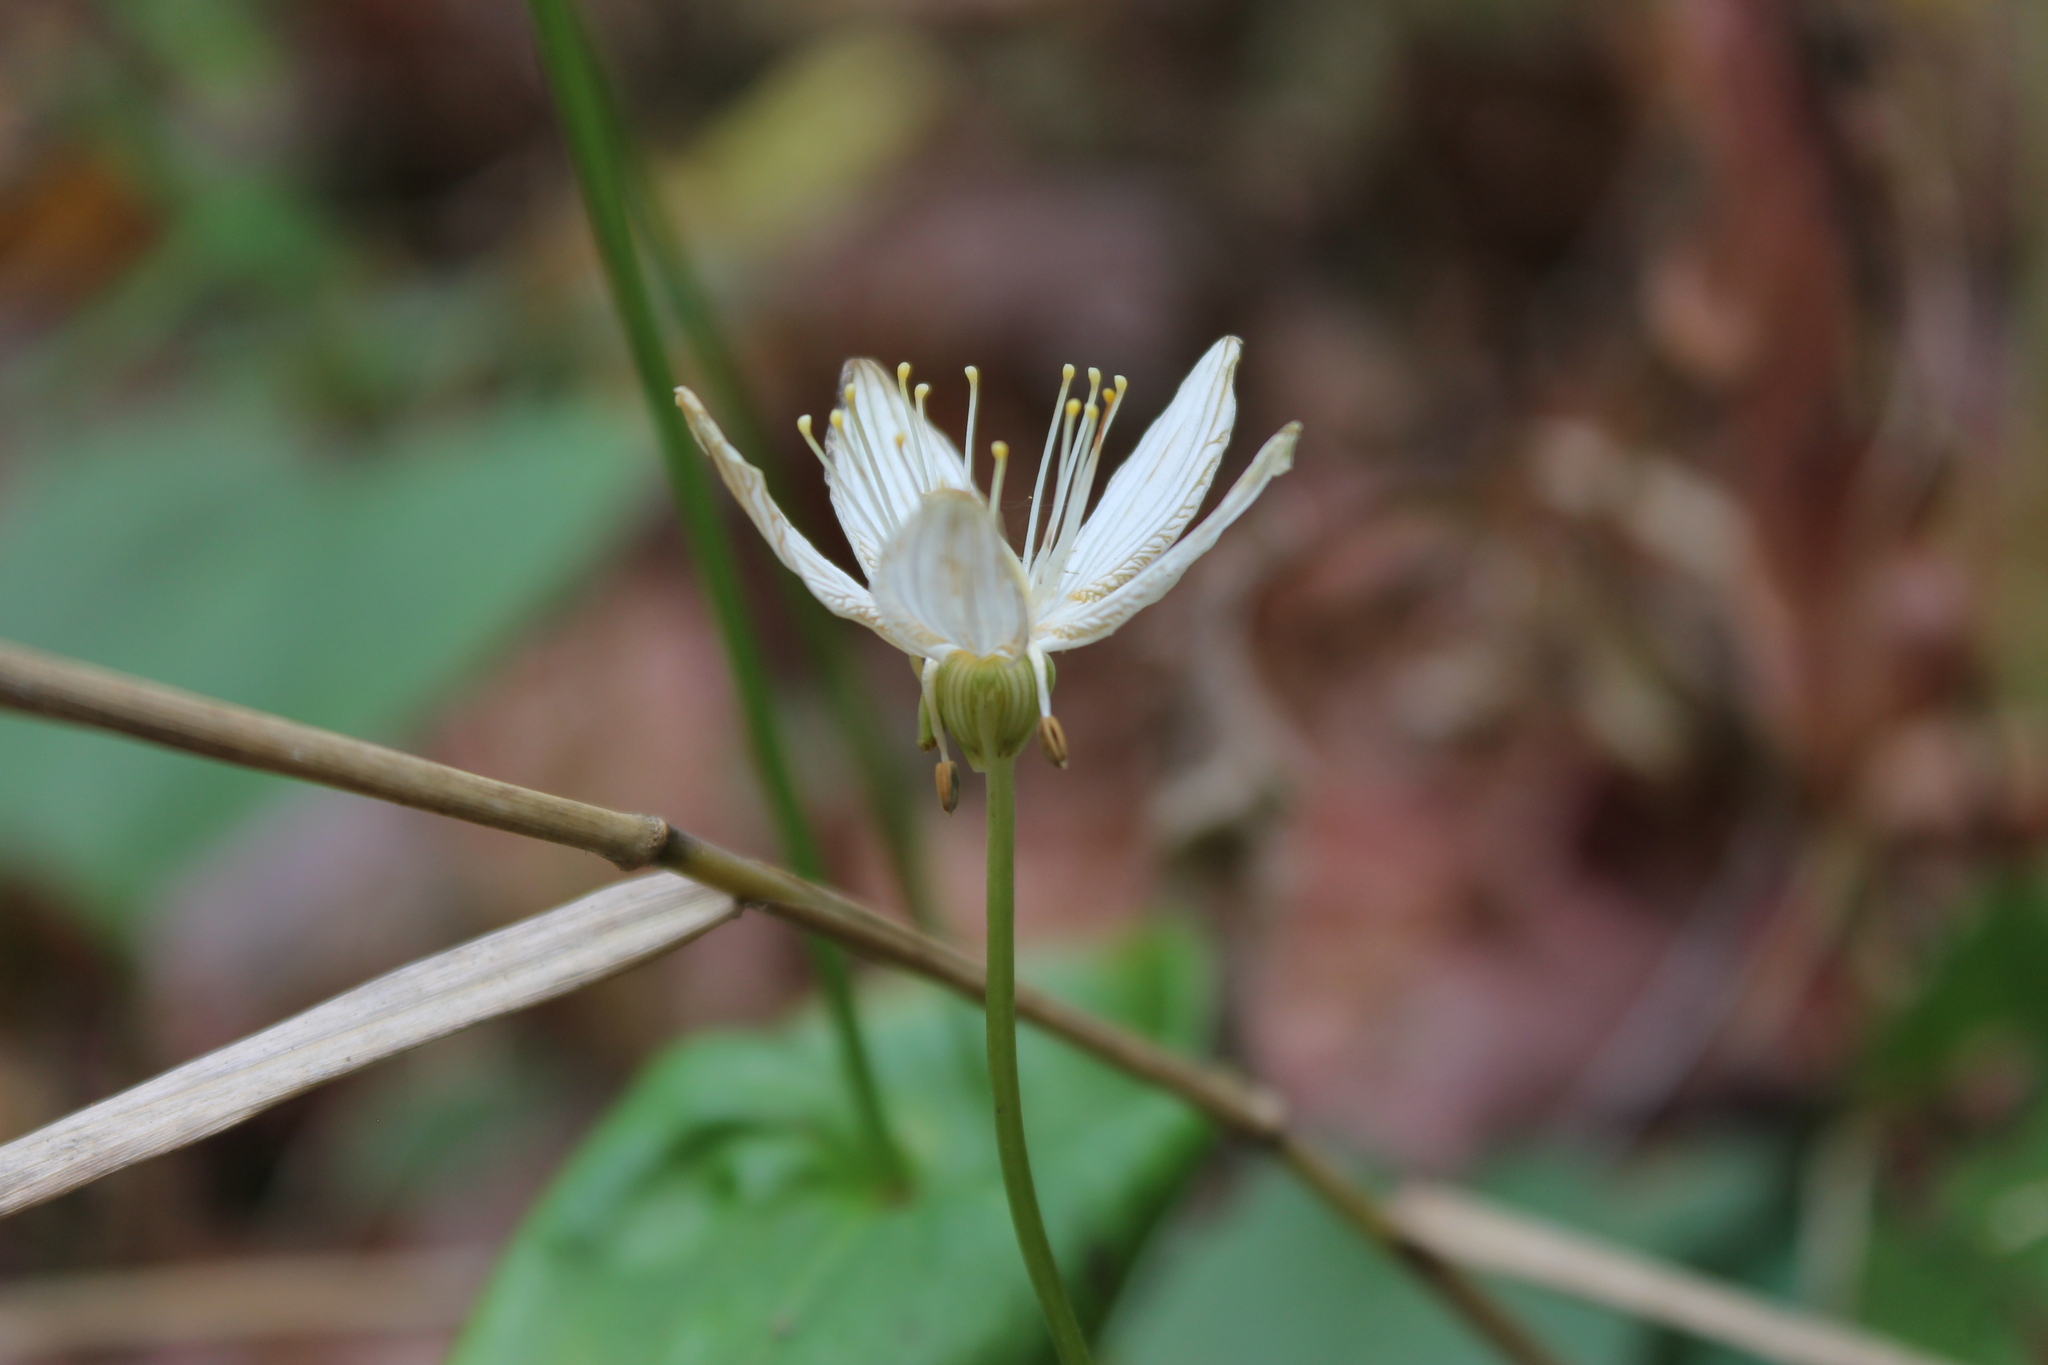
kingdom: Plantae
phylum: Tracheophyta
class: Magnoliopsida
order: Celastrales
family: Parnassiaceae
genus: Parnassia
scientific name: Parnassia grandifolia
